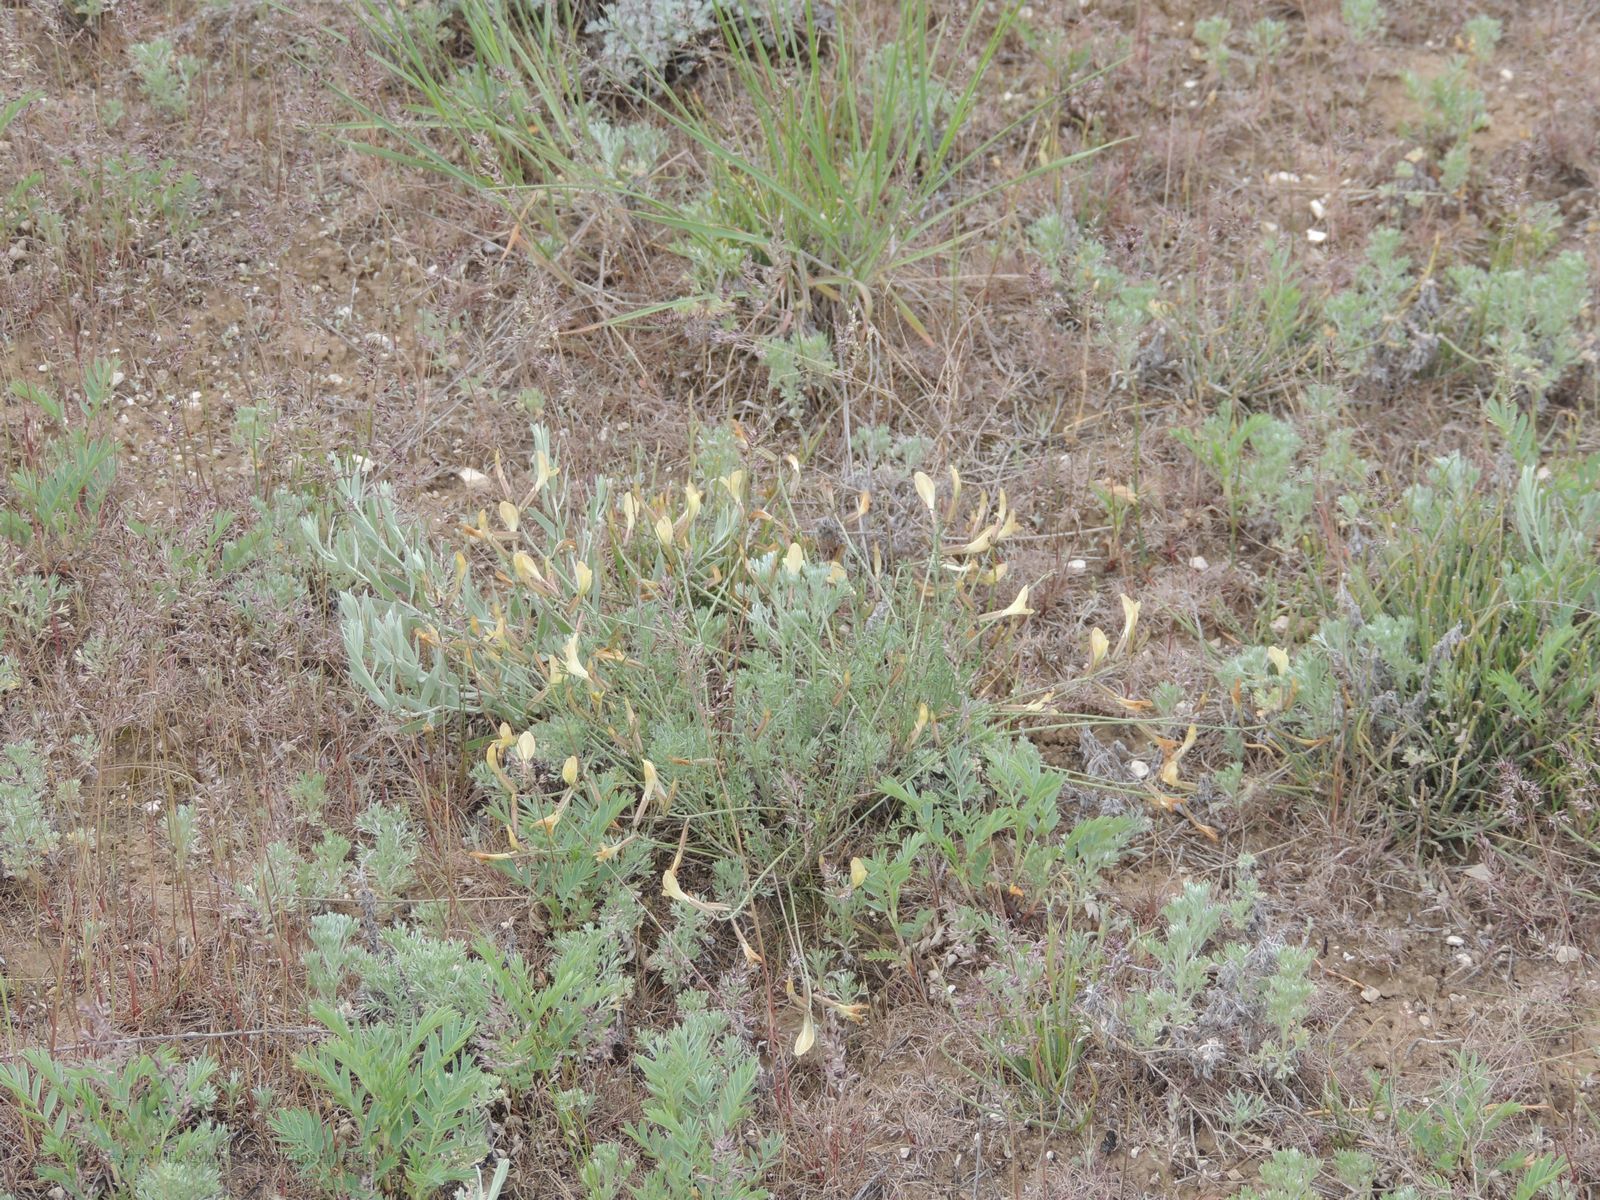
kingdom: Plantae
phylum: Tracheophyta
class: Magnoliopsida
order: Fabales
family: Fabaceae
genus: Astragalus
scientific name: Astragalus ucrainicus
